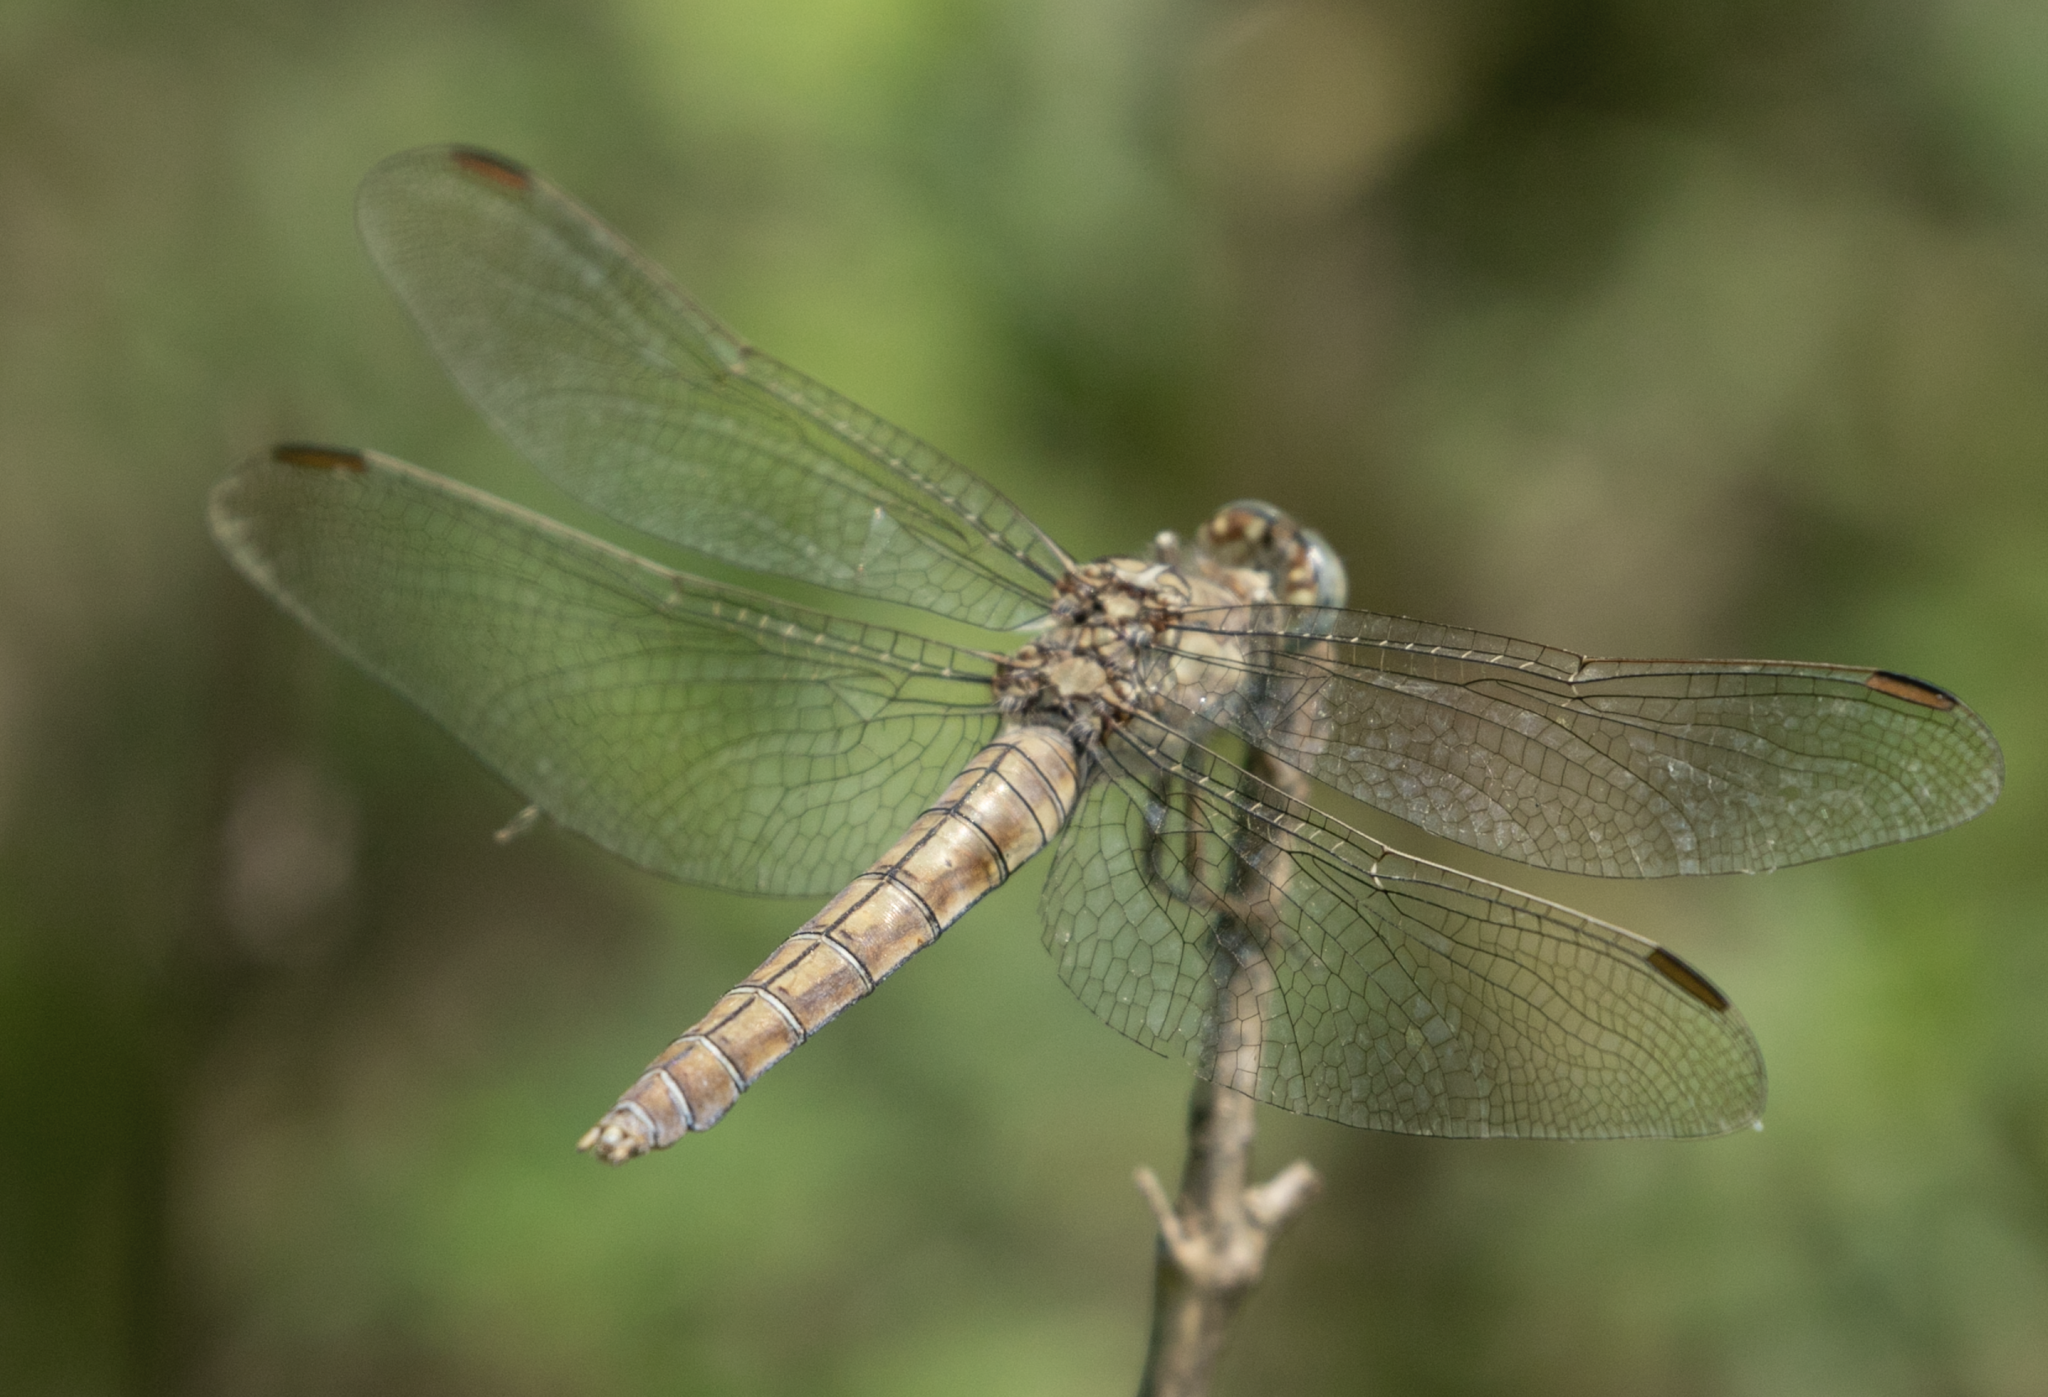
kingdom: Animalia
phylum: Arthropoda
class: Insecta
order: Odonata
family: Libellulidae
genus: Orthetrum
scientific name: Orthetrum brunneum
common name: Southern skimmer
